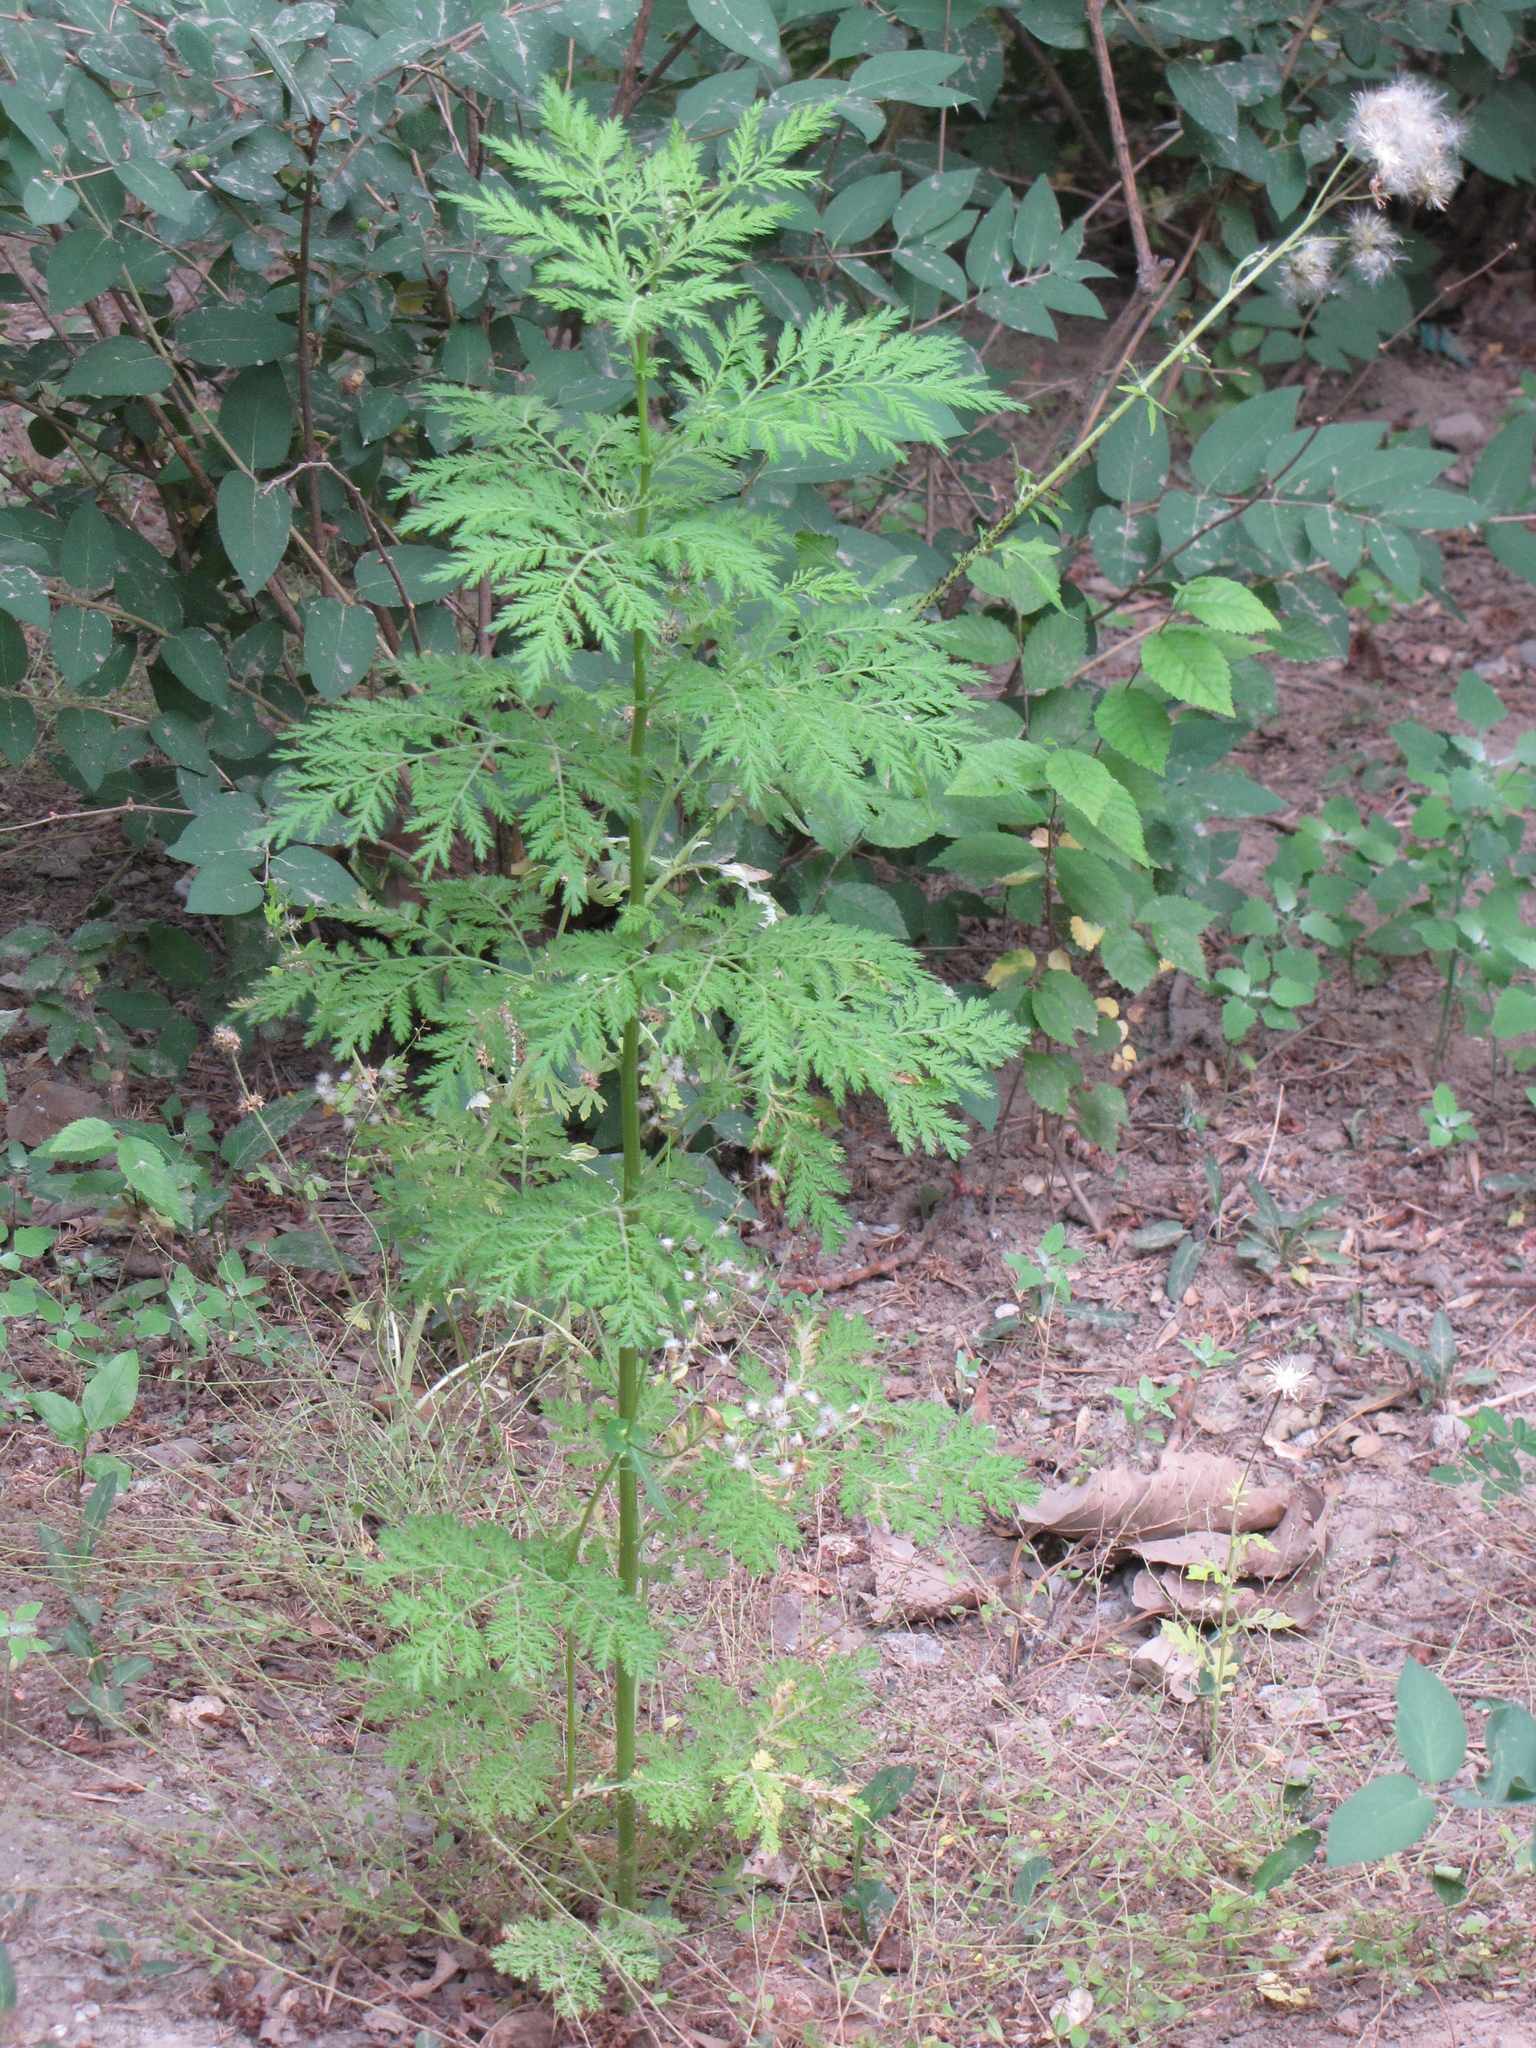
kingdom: Plantae
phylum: Tracheophyta
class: Magnoliopsida
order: Asterales
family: Asteraceae
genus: Ambrosia
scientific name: Ambrosia artemisiifolia
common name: Annual ragweed
